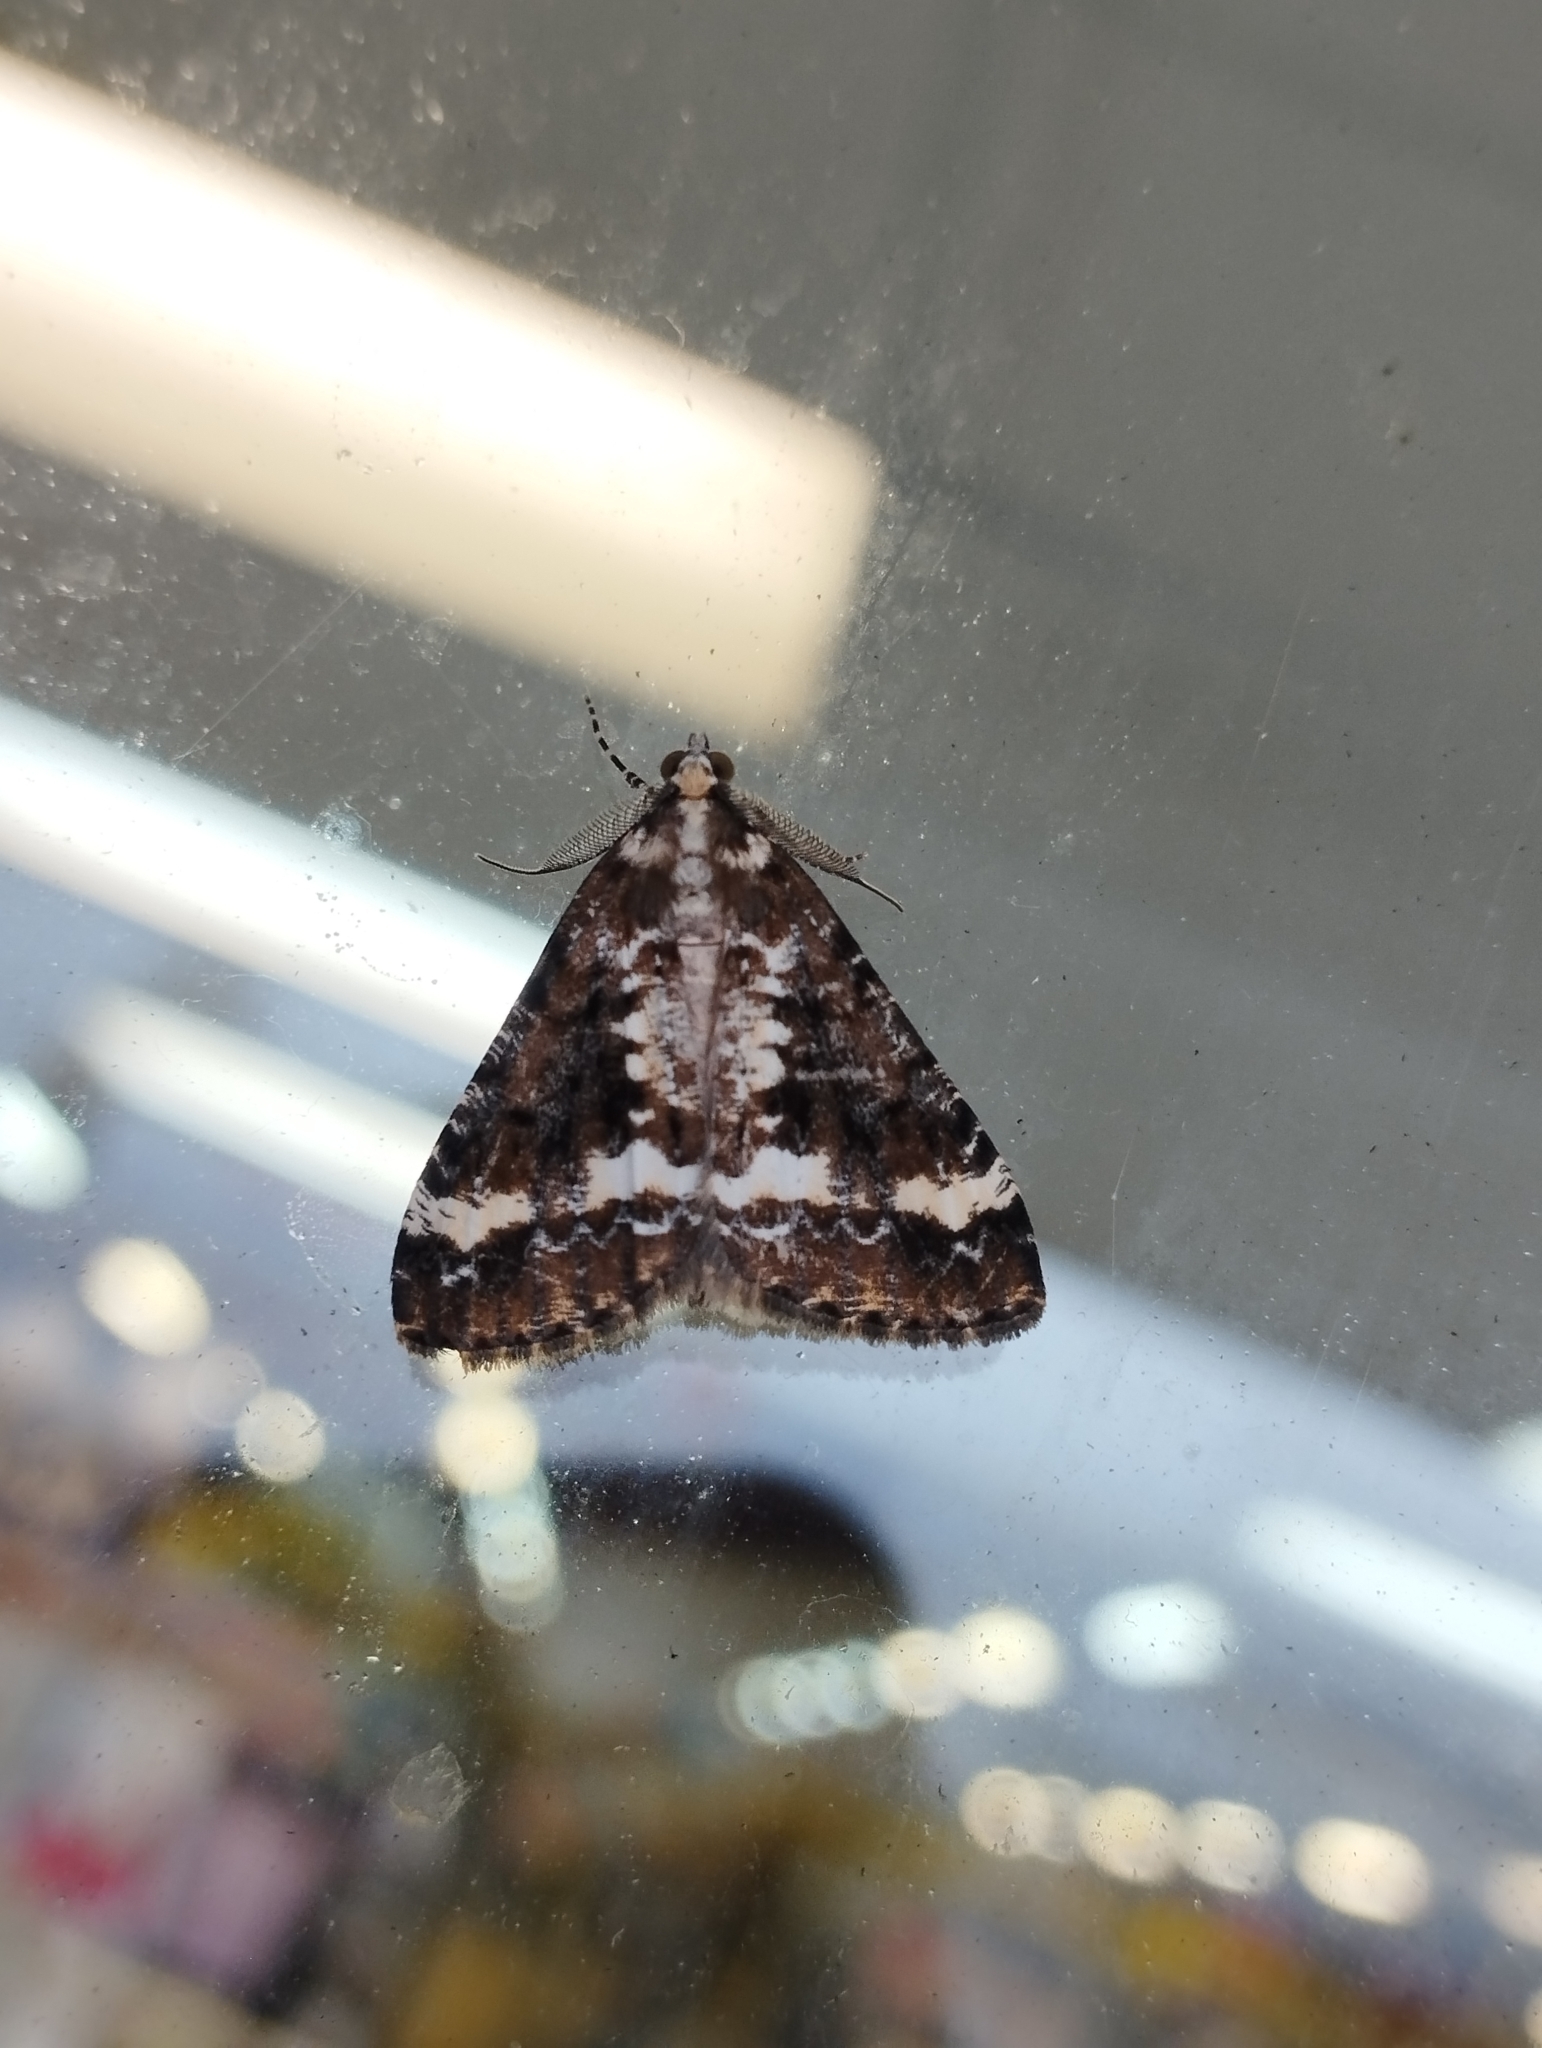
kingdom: Animalia
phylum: Arthropoda
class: Insecta
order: Lepidoptera
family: Geometridae
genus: Pseudocoremia
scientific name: Pseudocoremia leucelaea
